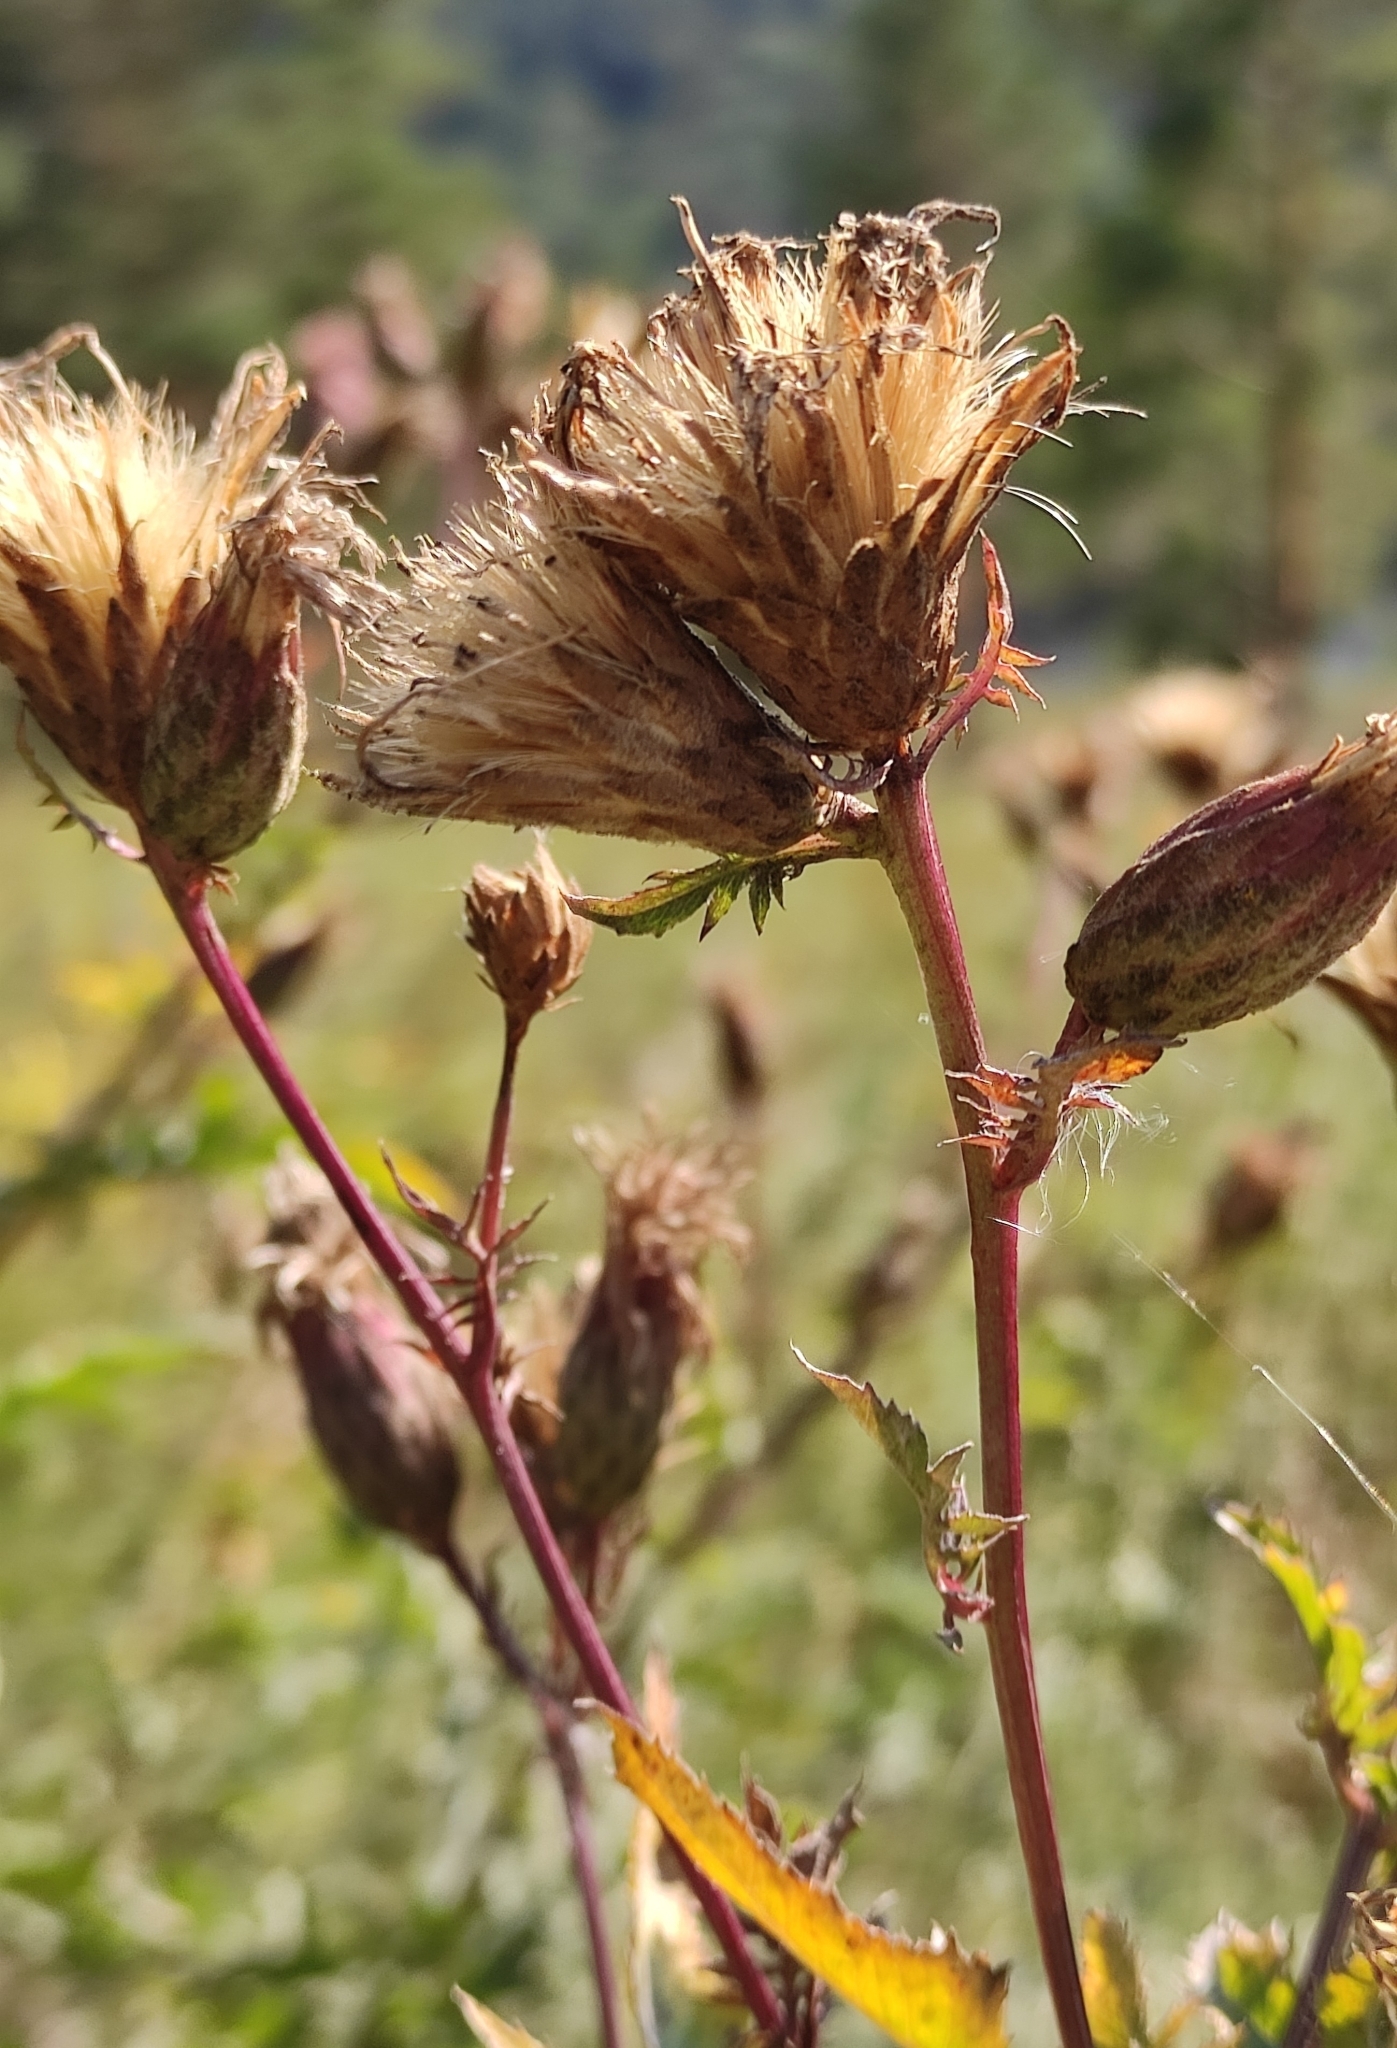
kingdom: Plantae
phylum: Tracheophyta
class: Magnoliopsida
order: Asterales
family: Asteraceae
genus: Serratula
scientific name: Serratula coronata
